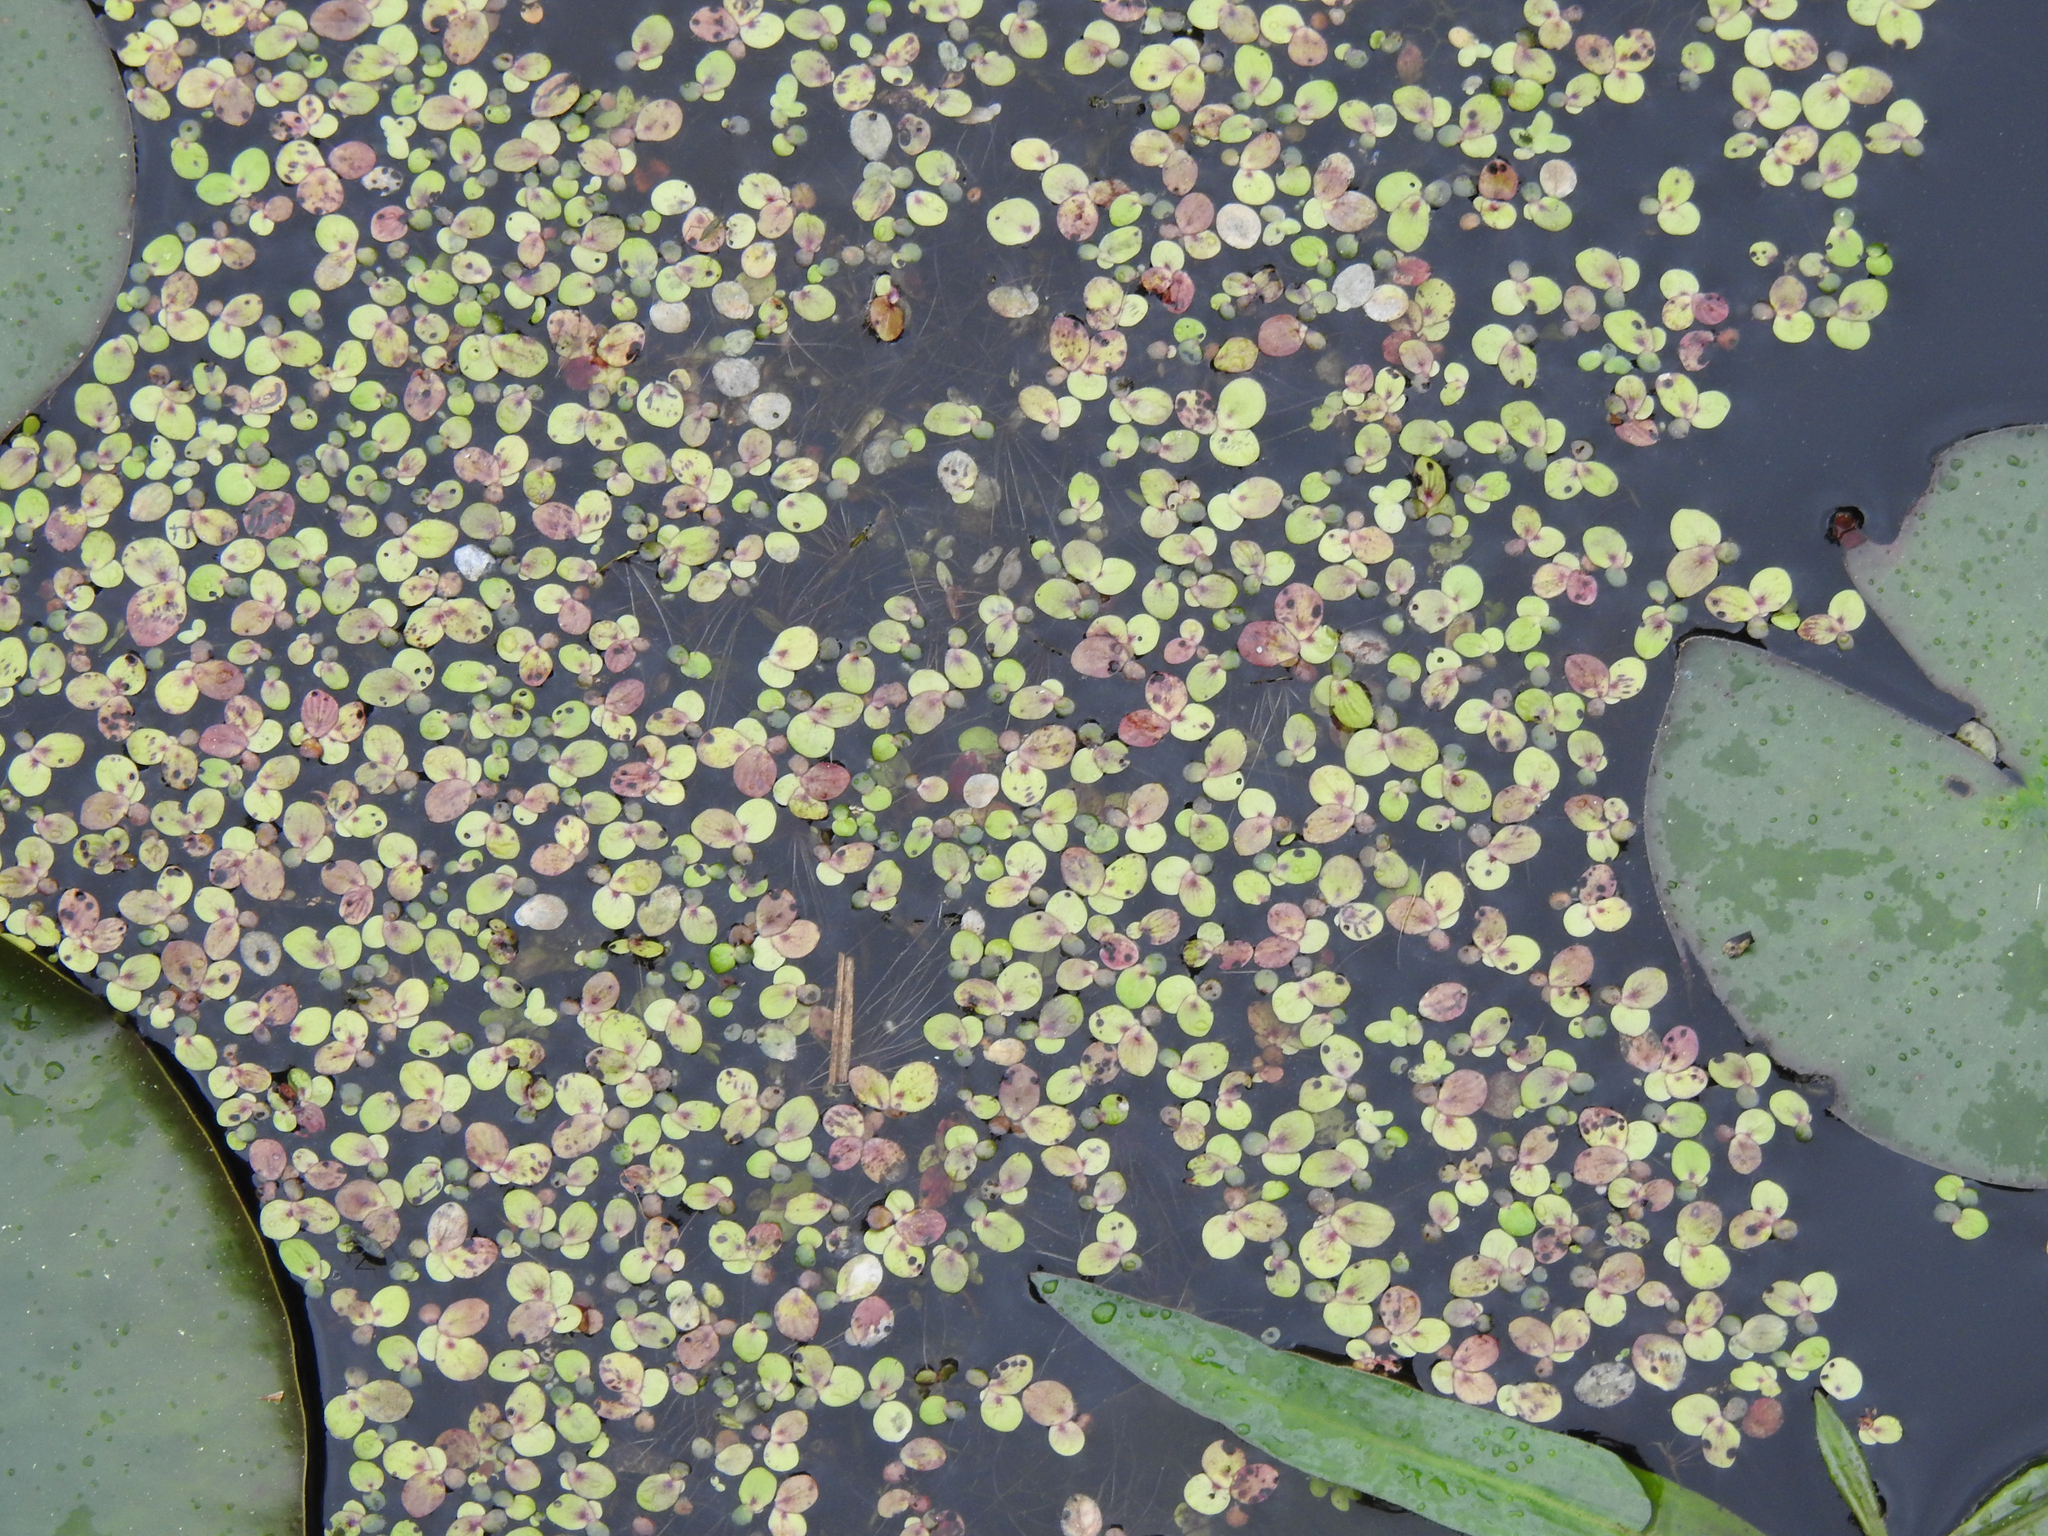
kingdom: Plantae
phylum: Tracheophyta
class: Liliopsida
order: Alismatales
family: Araceae
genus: Spirodela
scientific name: Spirodela polyrhiza
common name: Great duckweed
